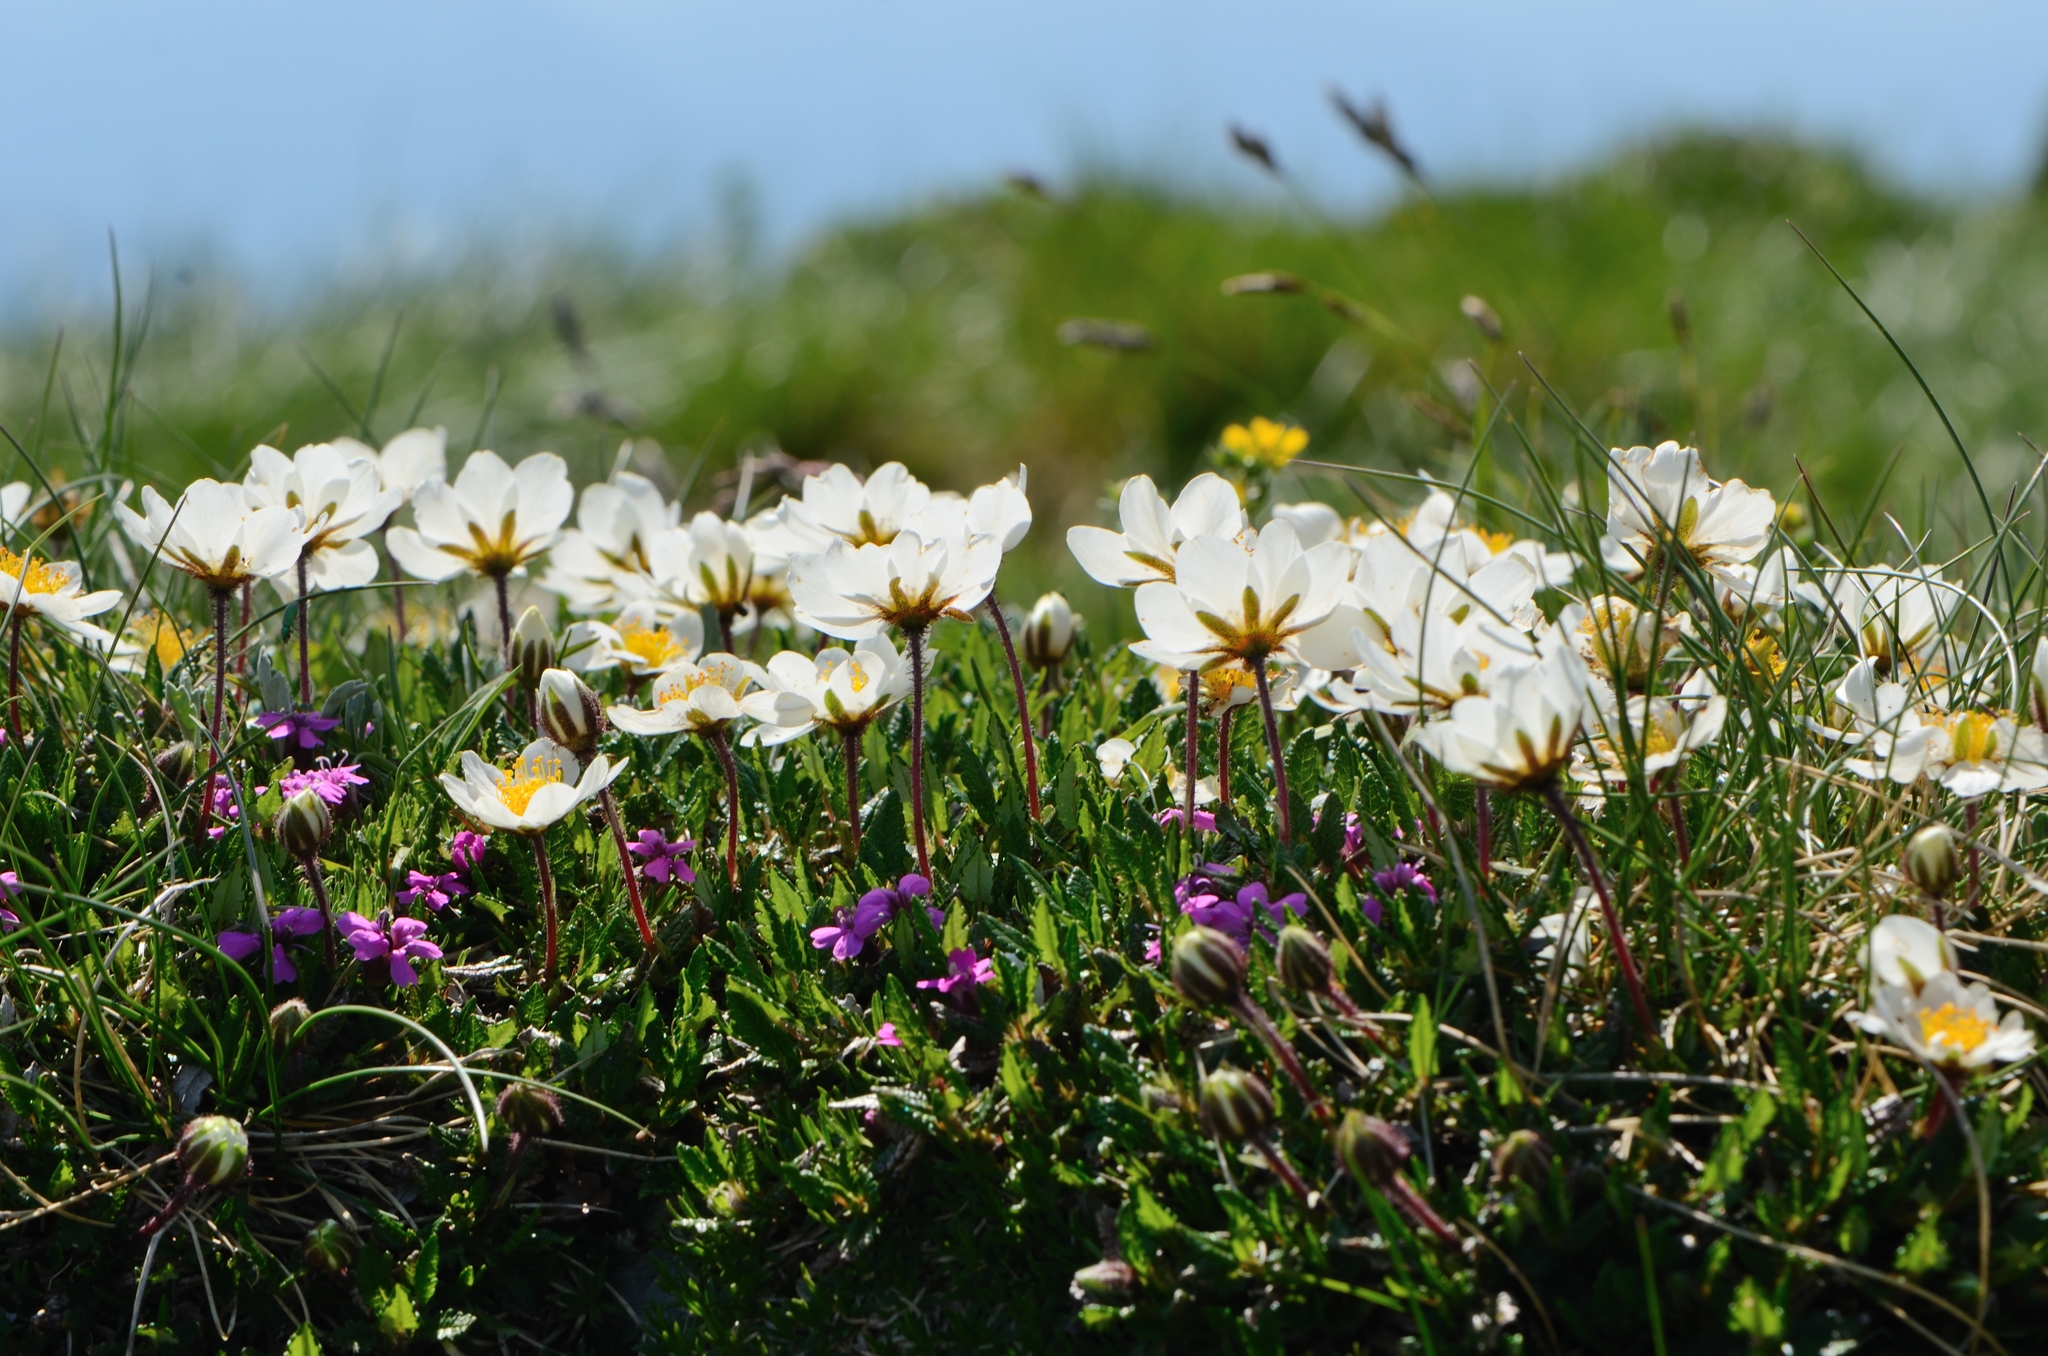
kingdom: Plantae
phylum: Tracheophyta
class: Magnoliopsida
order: Rosales
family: Rosaceae
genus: Dryas
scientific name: Dryas octopetala
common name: Eight-petal mountain-avens
